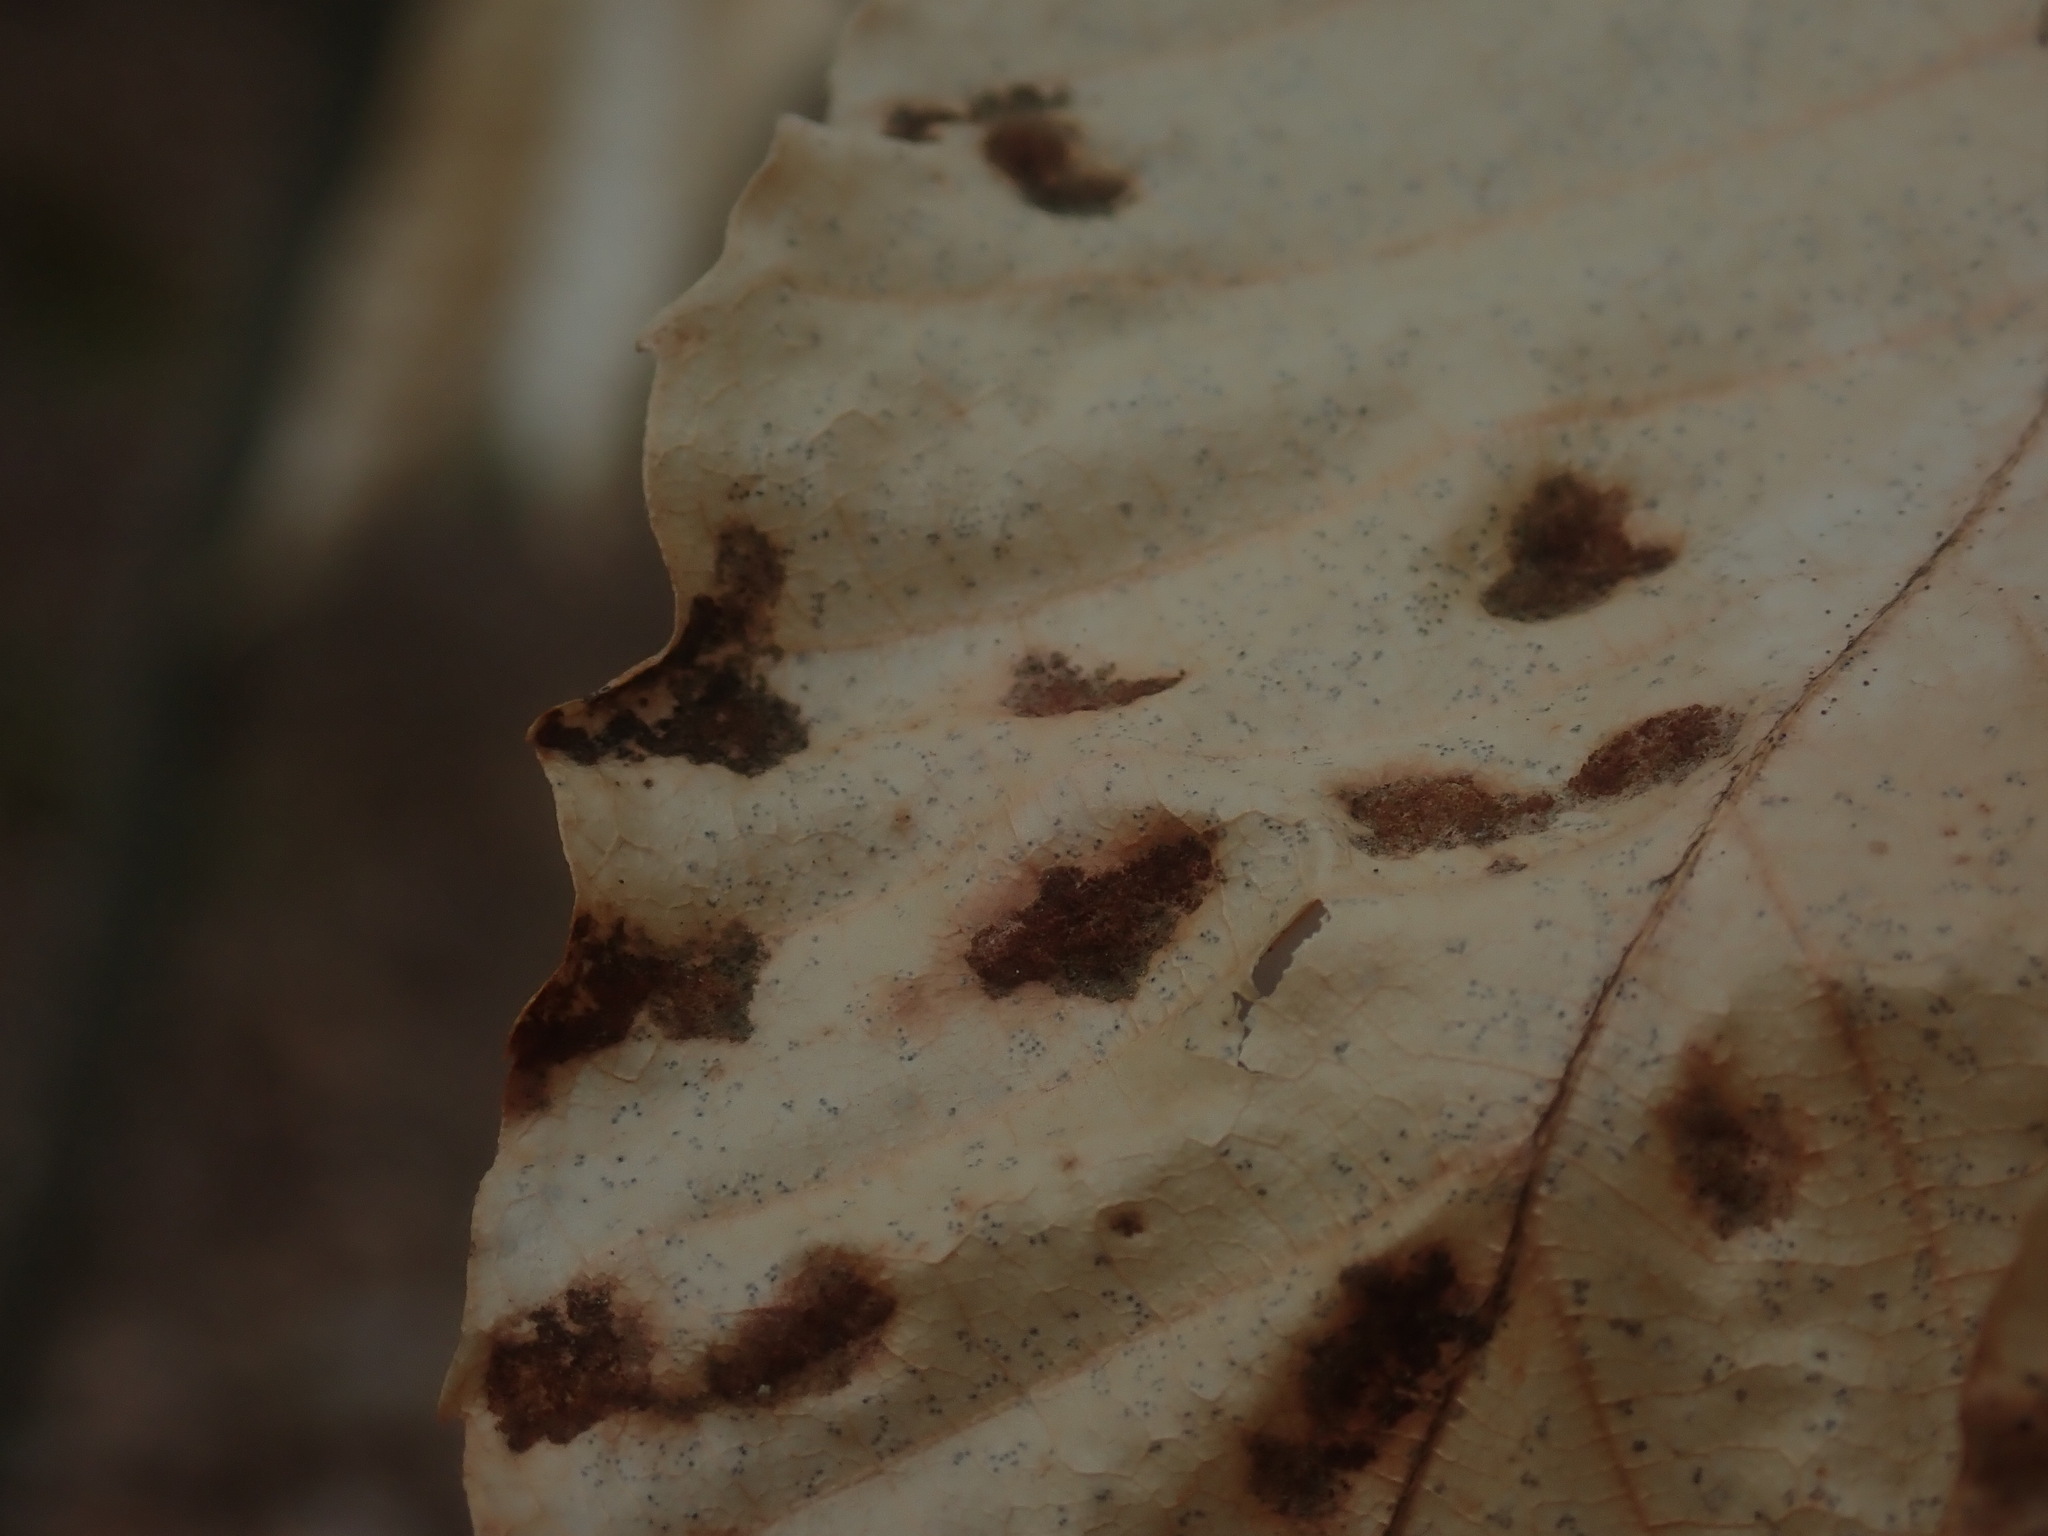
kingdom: Animalia
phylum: Arthropoda
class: Arachnida
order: Trombidiformes
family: Eriophyidae
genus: Acalitus
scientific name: Acalitus
